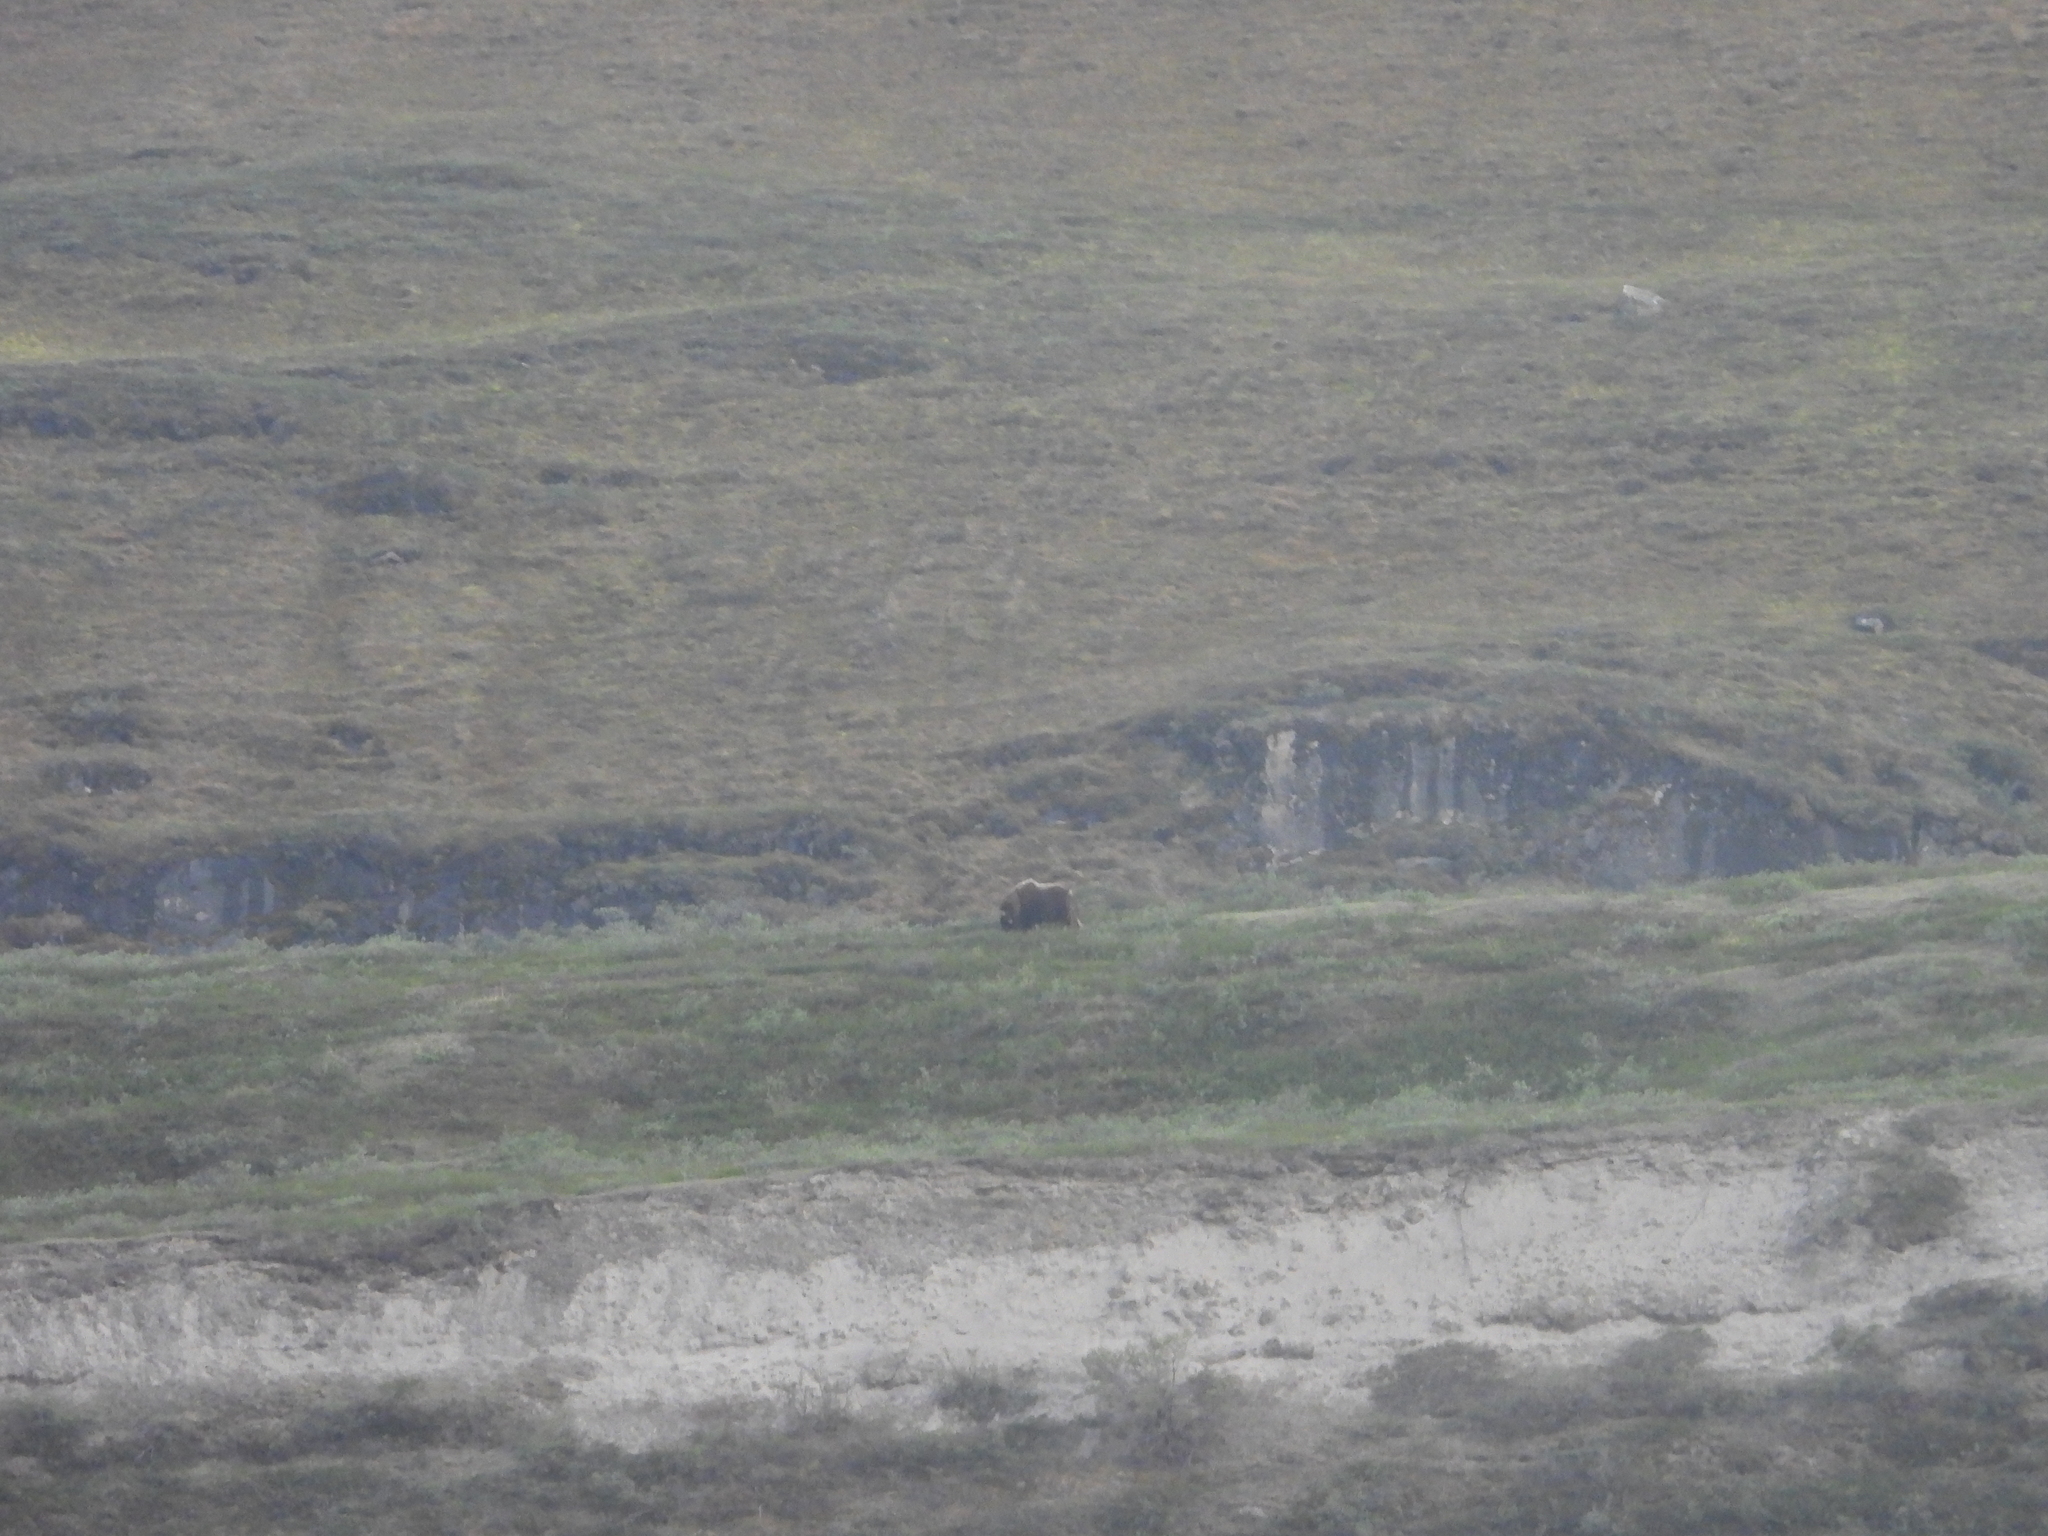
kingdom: Animalia
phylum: Chordata
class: Mammalia
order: Artiodactyla
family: Bovidae
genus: Ovibos
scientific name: Ovibos moschatus
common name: Muskox
